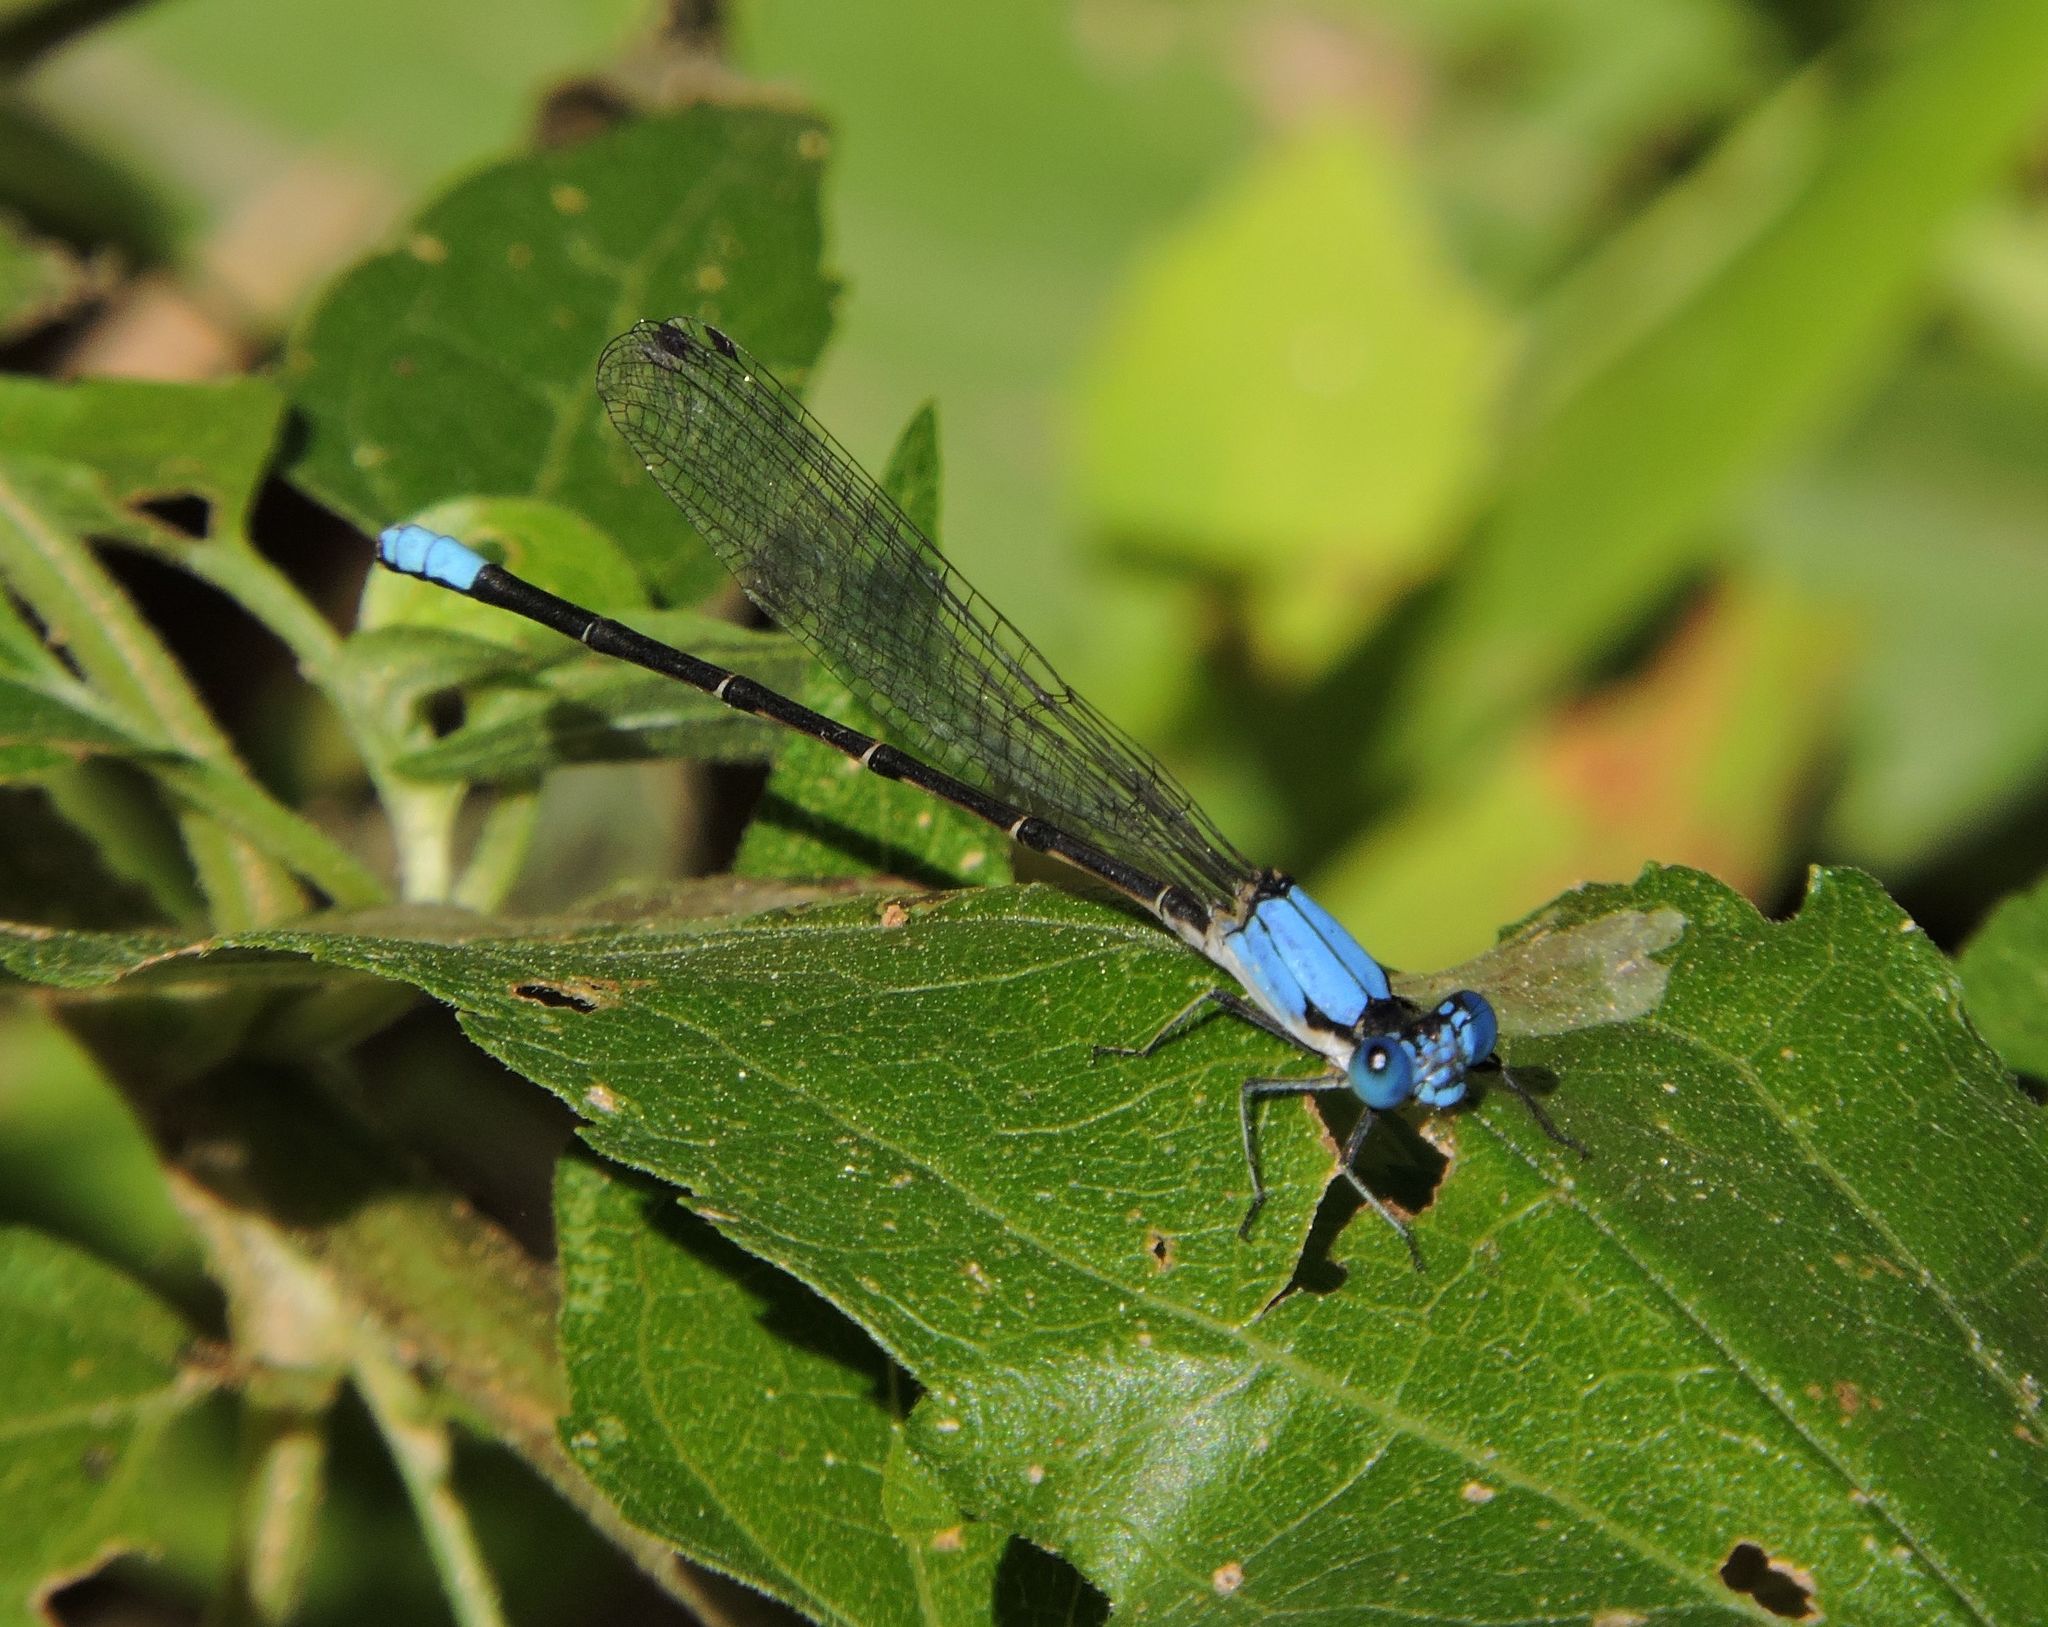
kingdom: Animalia
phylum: Arthropoda
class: Insecta
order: Odonata
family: Coenagrionidae
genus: Argia
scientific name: Argia apicalis
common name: Blue-fronted dancer
